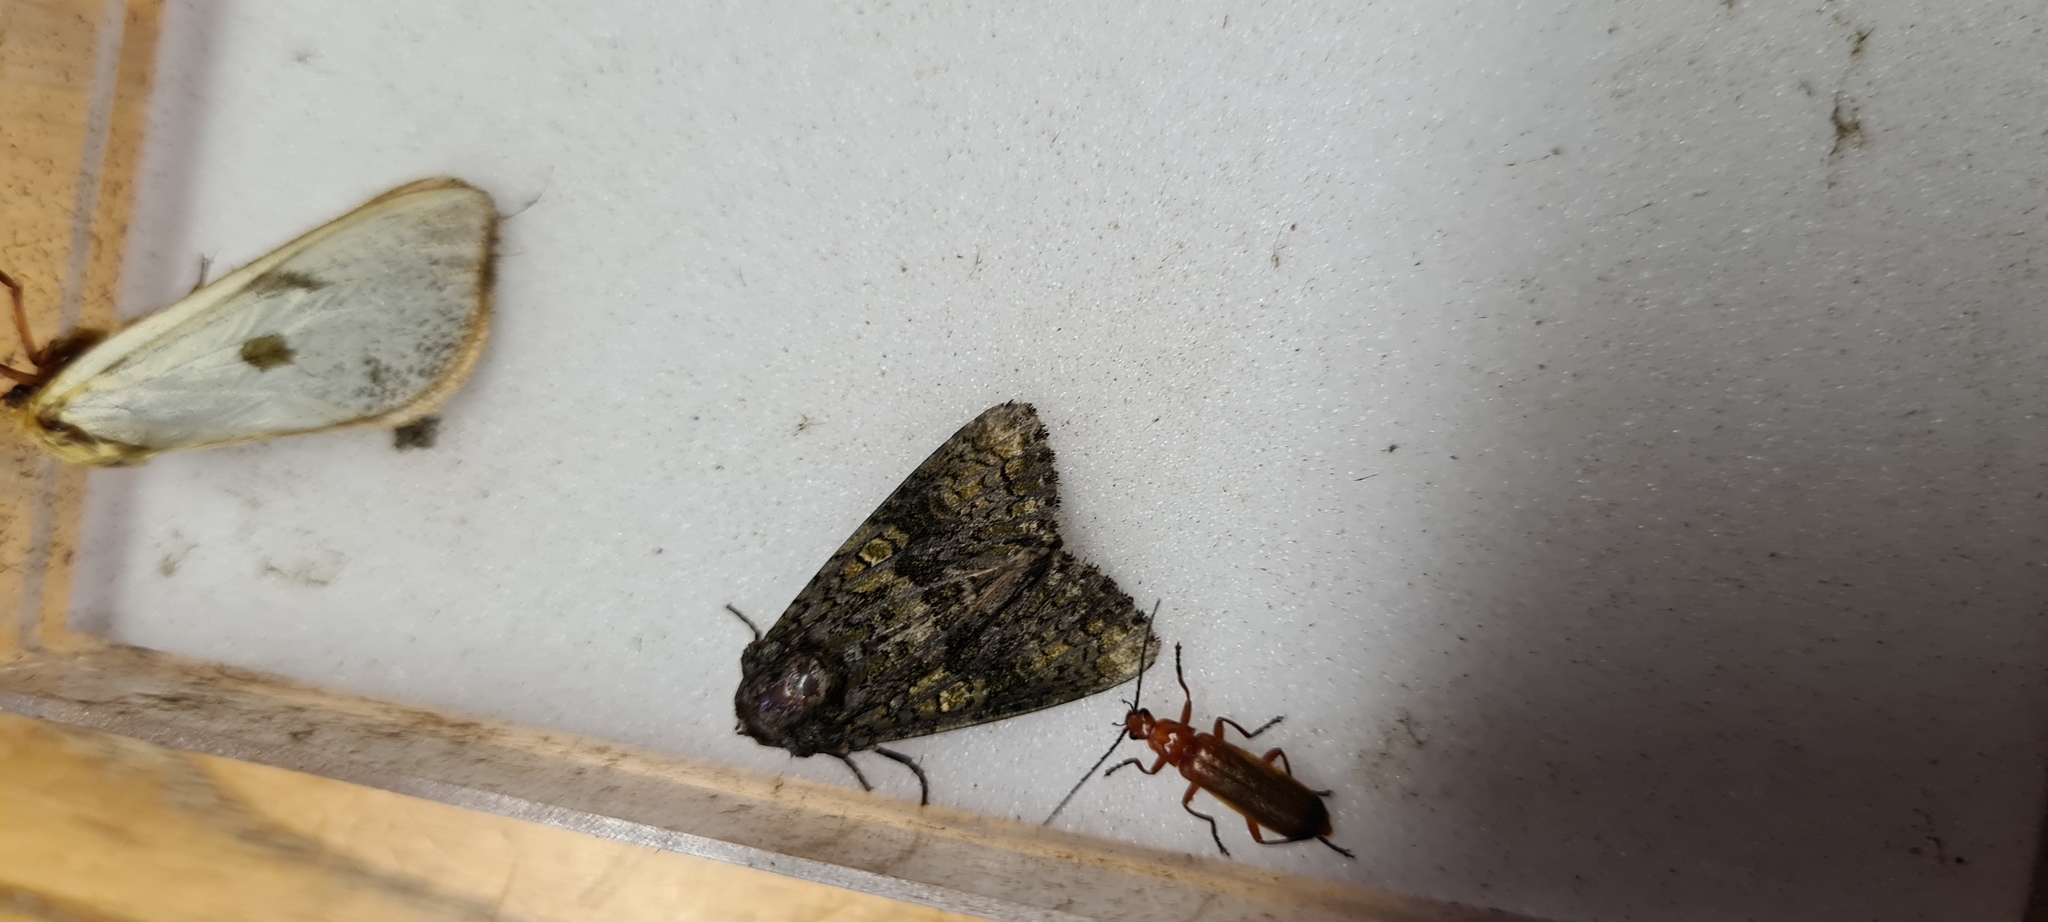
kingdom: Animalia
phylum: Arthropoda
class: Insecta
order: Lepidoptera
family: Noctuidae
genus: Craniophora
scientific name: Craniophora ligustri
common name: Coronet
